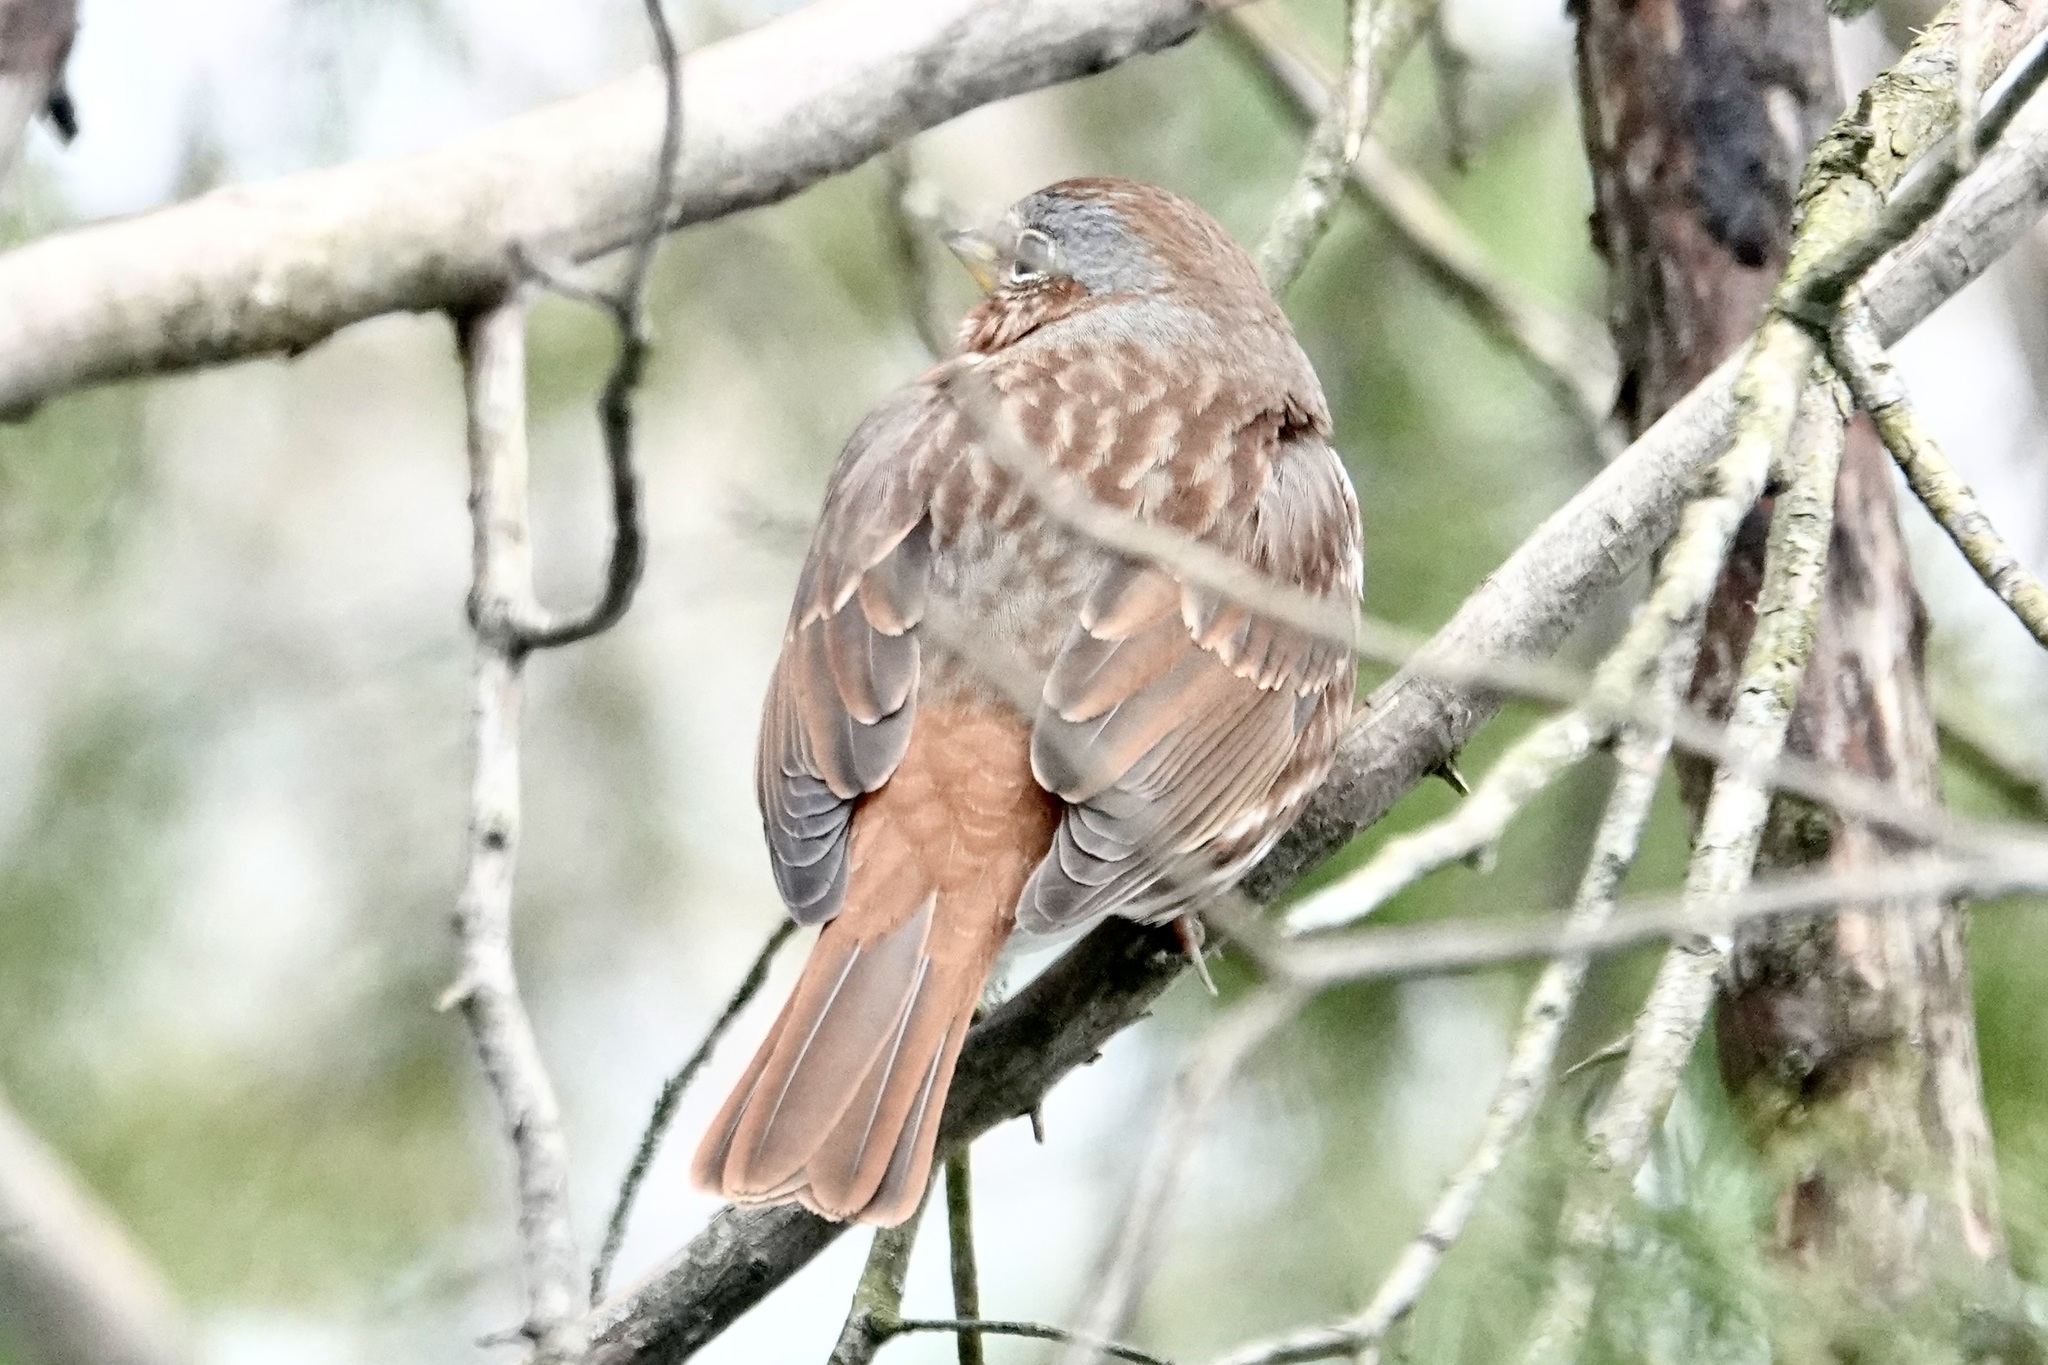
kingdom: Animalia
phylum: Chordata
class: Aves
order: Passeriformes
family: Passerellidae
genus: Passerella
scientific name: Passerella iliaca
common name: Fox sparrow
